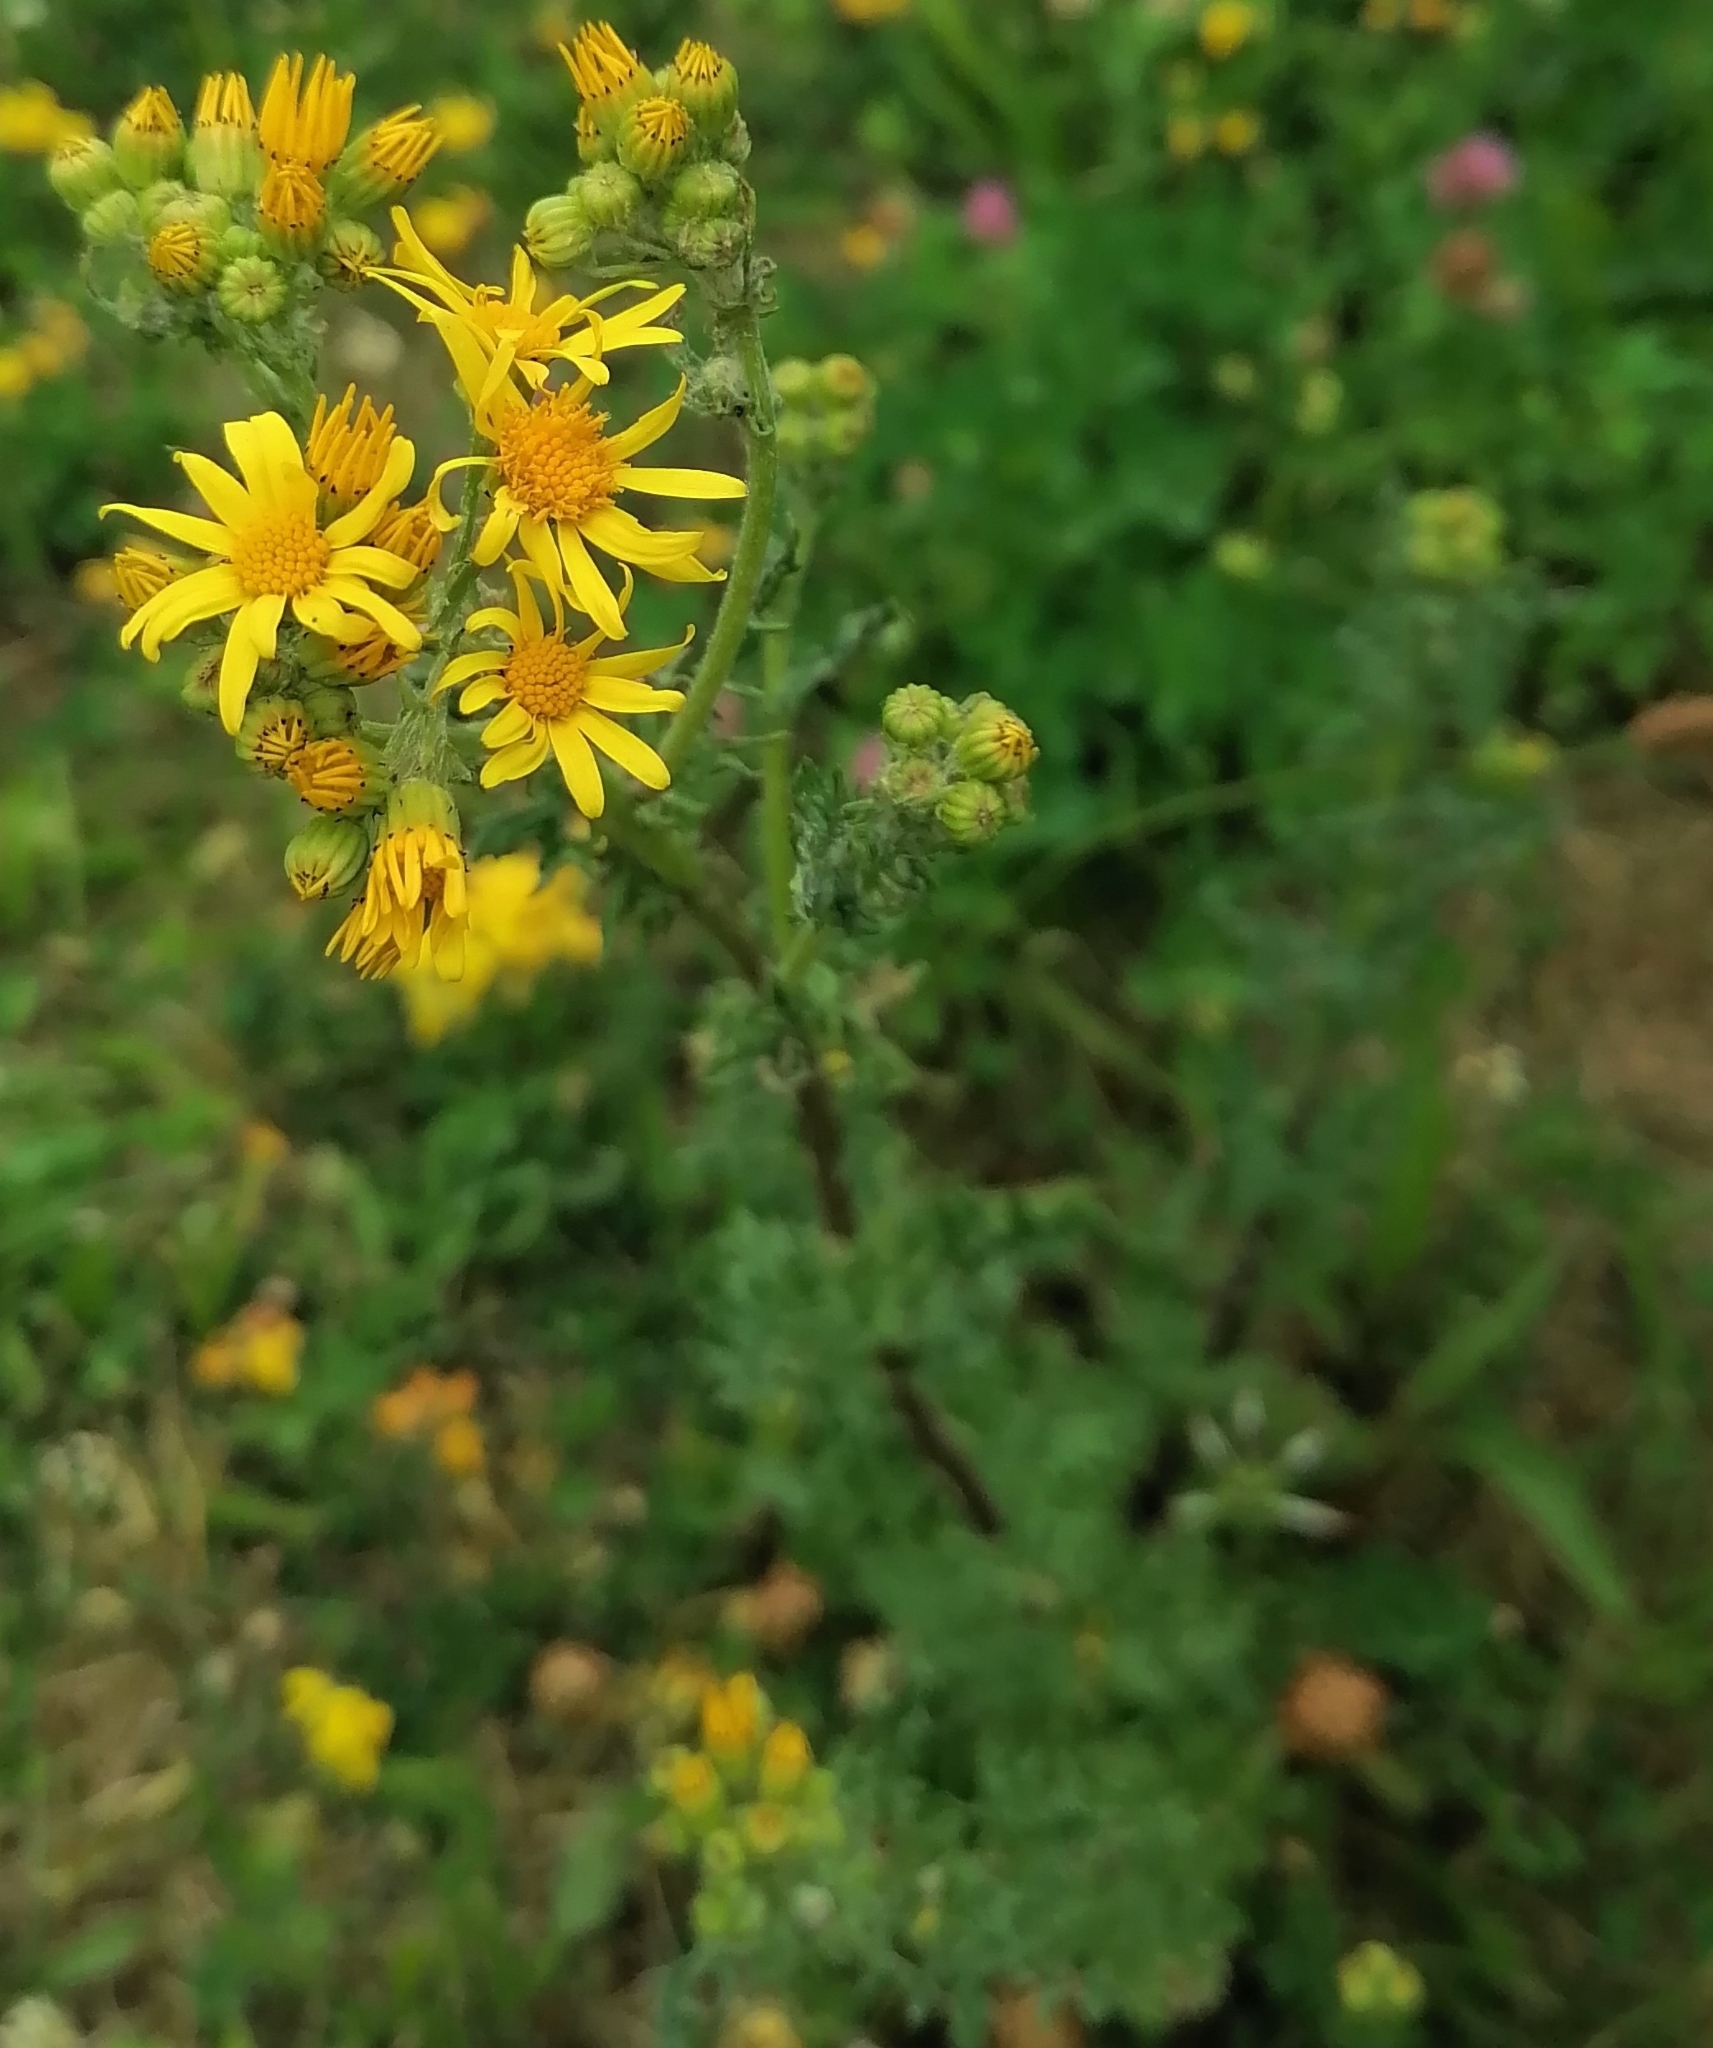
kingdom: Plantae
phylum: Tracheophyta
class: Magnoliopsida
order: Asterales
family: Asteraceae
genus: Jacobaea
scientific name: Jacobaea vulgaris
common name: Stinking willie
